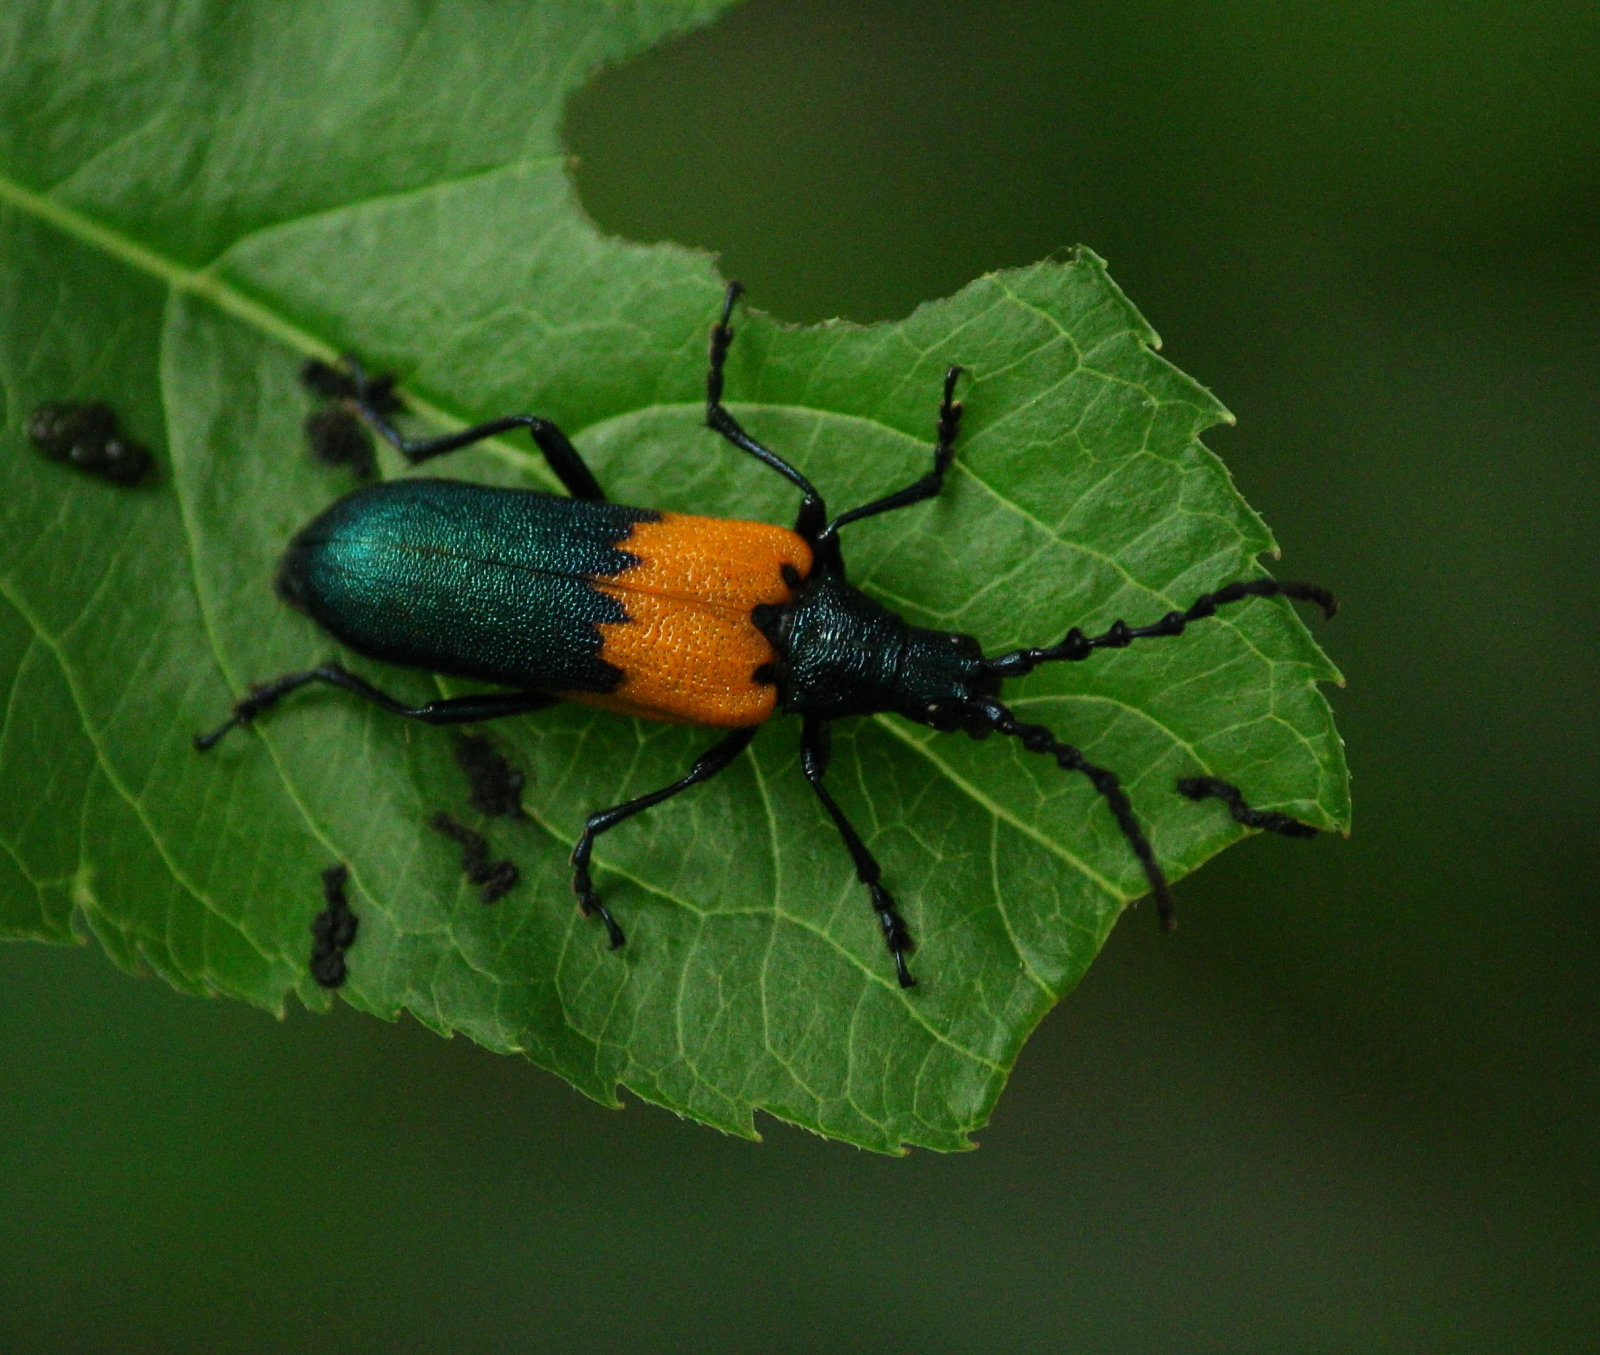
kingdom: Animalia
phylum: Arthropoda
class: Insecta
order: Coleoptera
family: Cerambycidae
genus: Desmocerus
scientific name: Desmocerus palliatus
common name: Eastern elderberry borer
